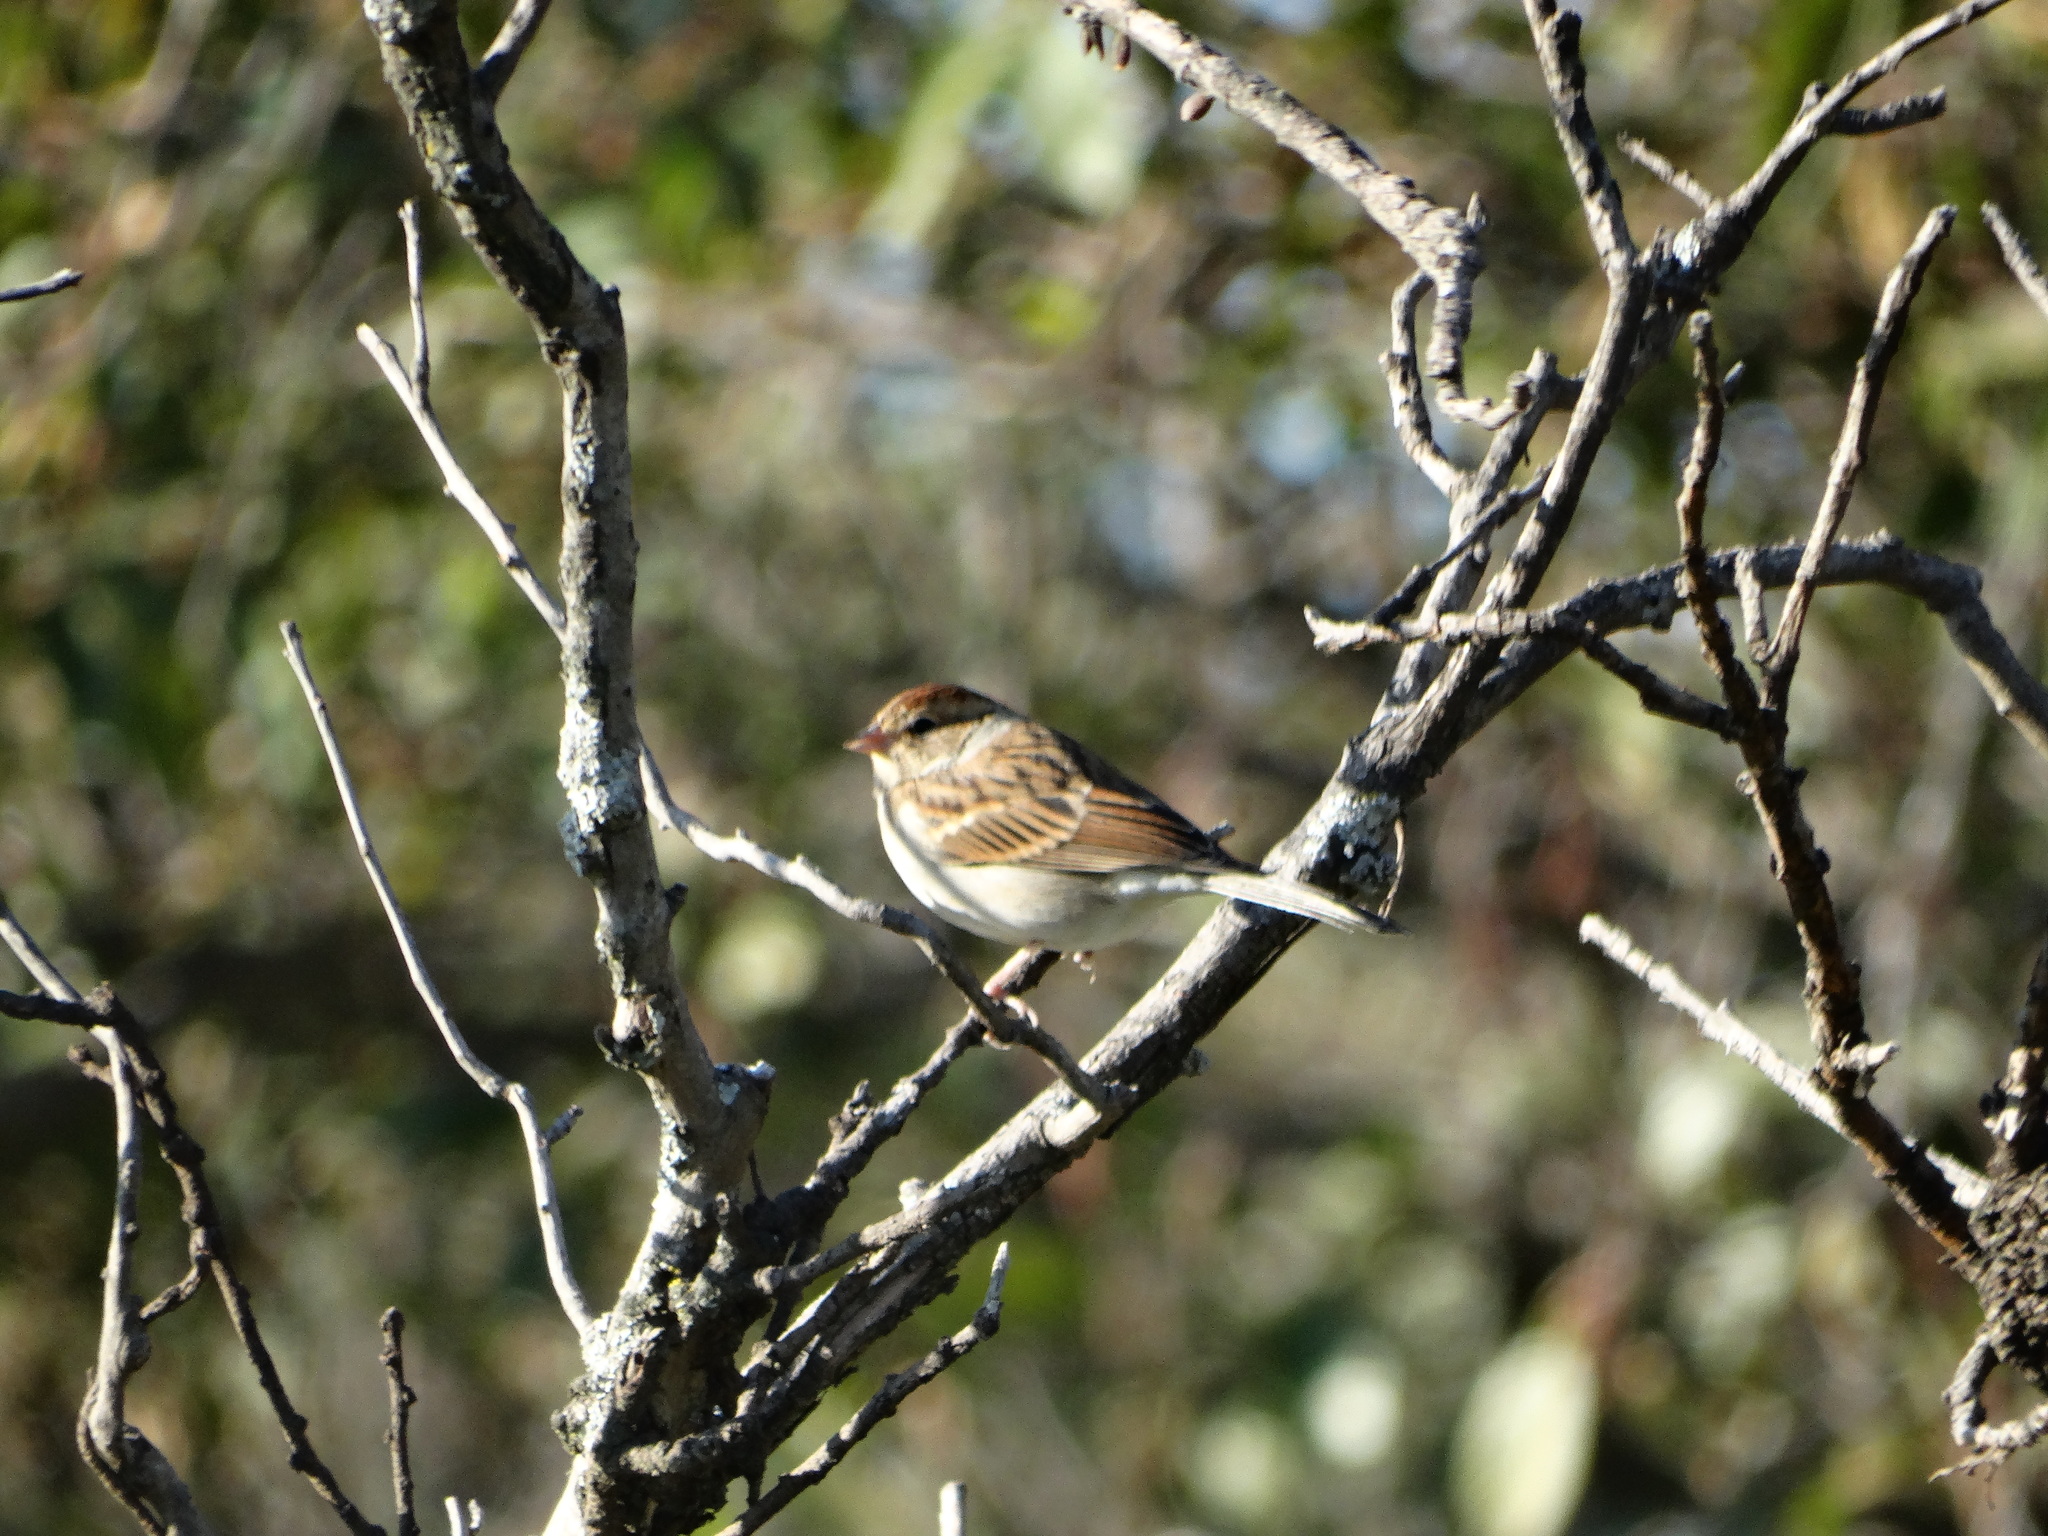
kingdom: Animalia
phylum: Chordata
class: Aves
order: Passeriformes
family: Passerellidae
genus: Spizella
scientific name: Spizella passerina
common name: Chipping sparrow
